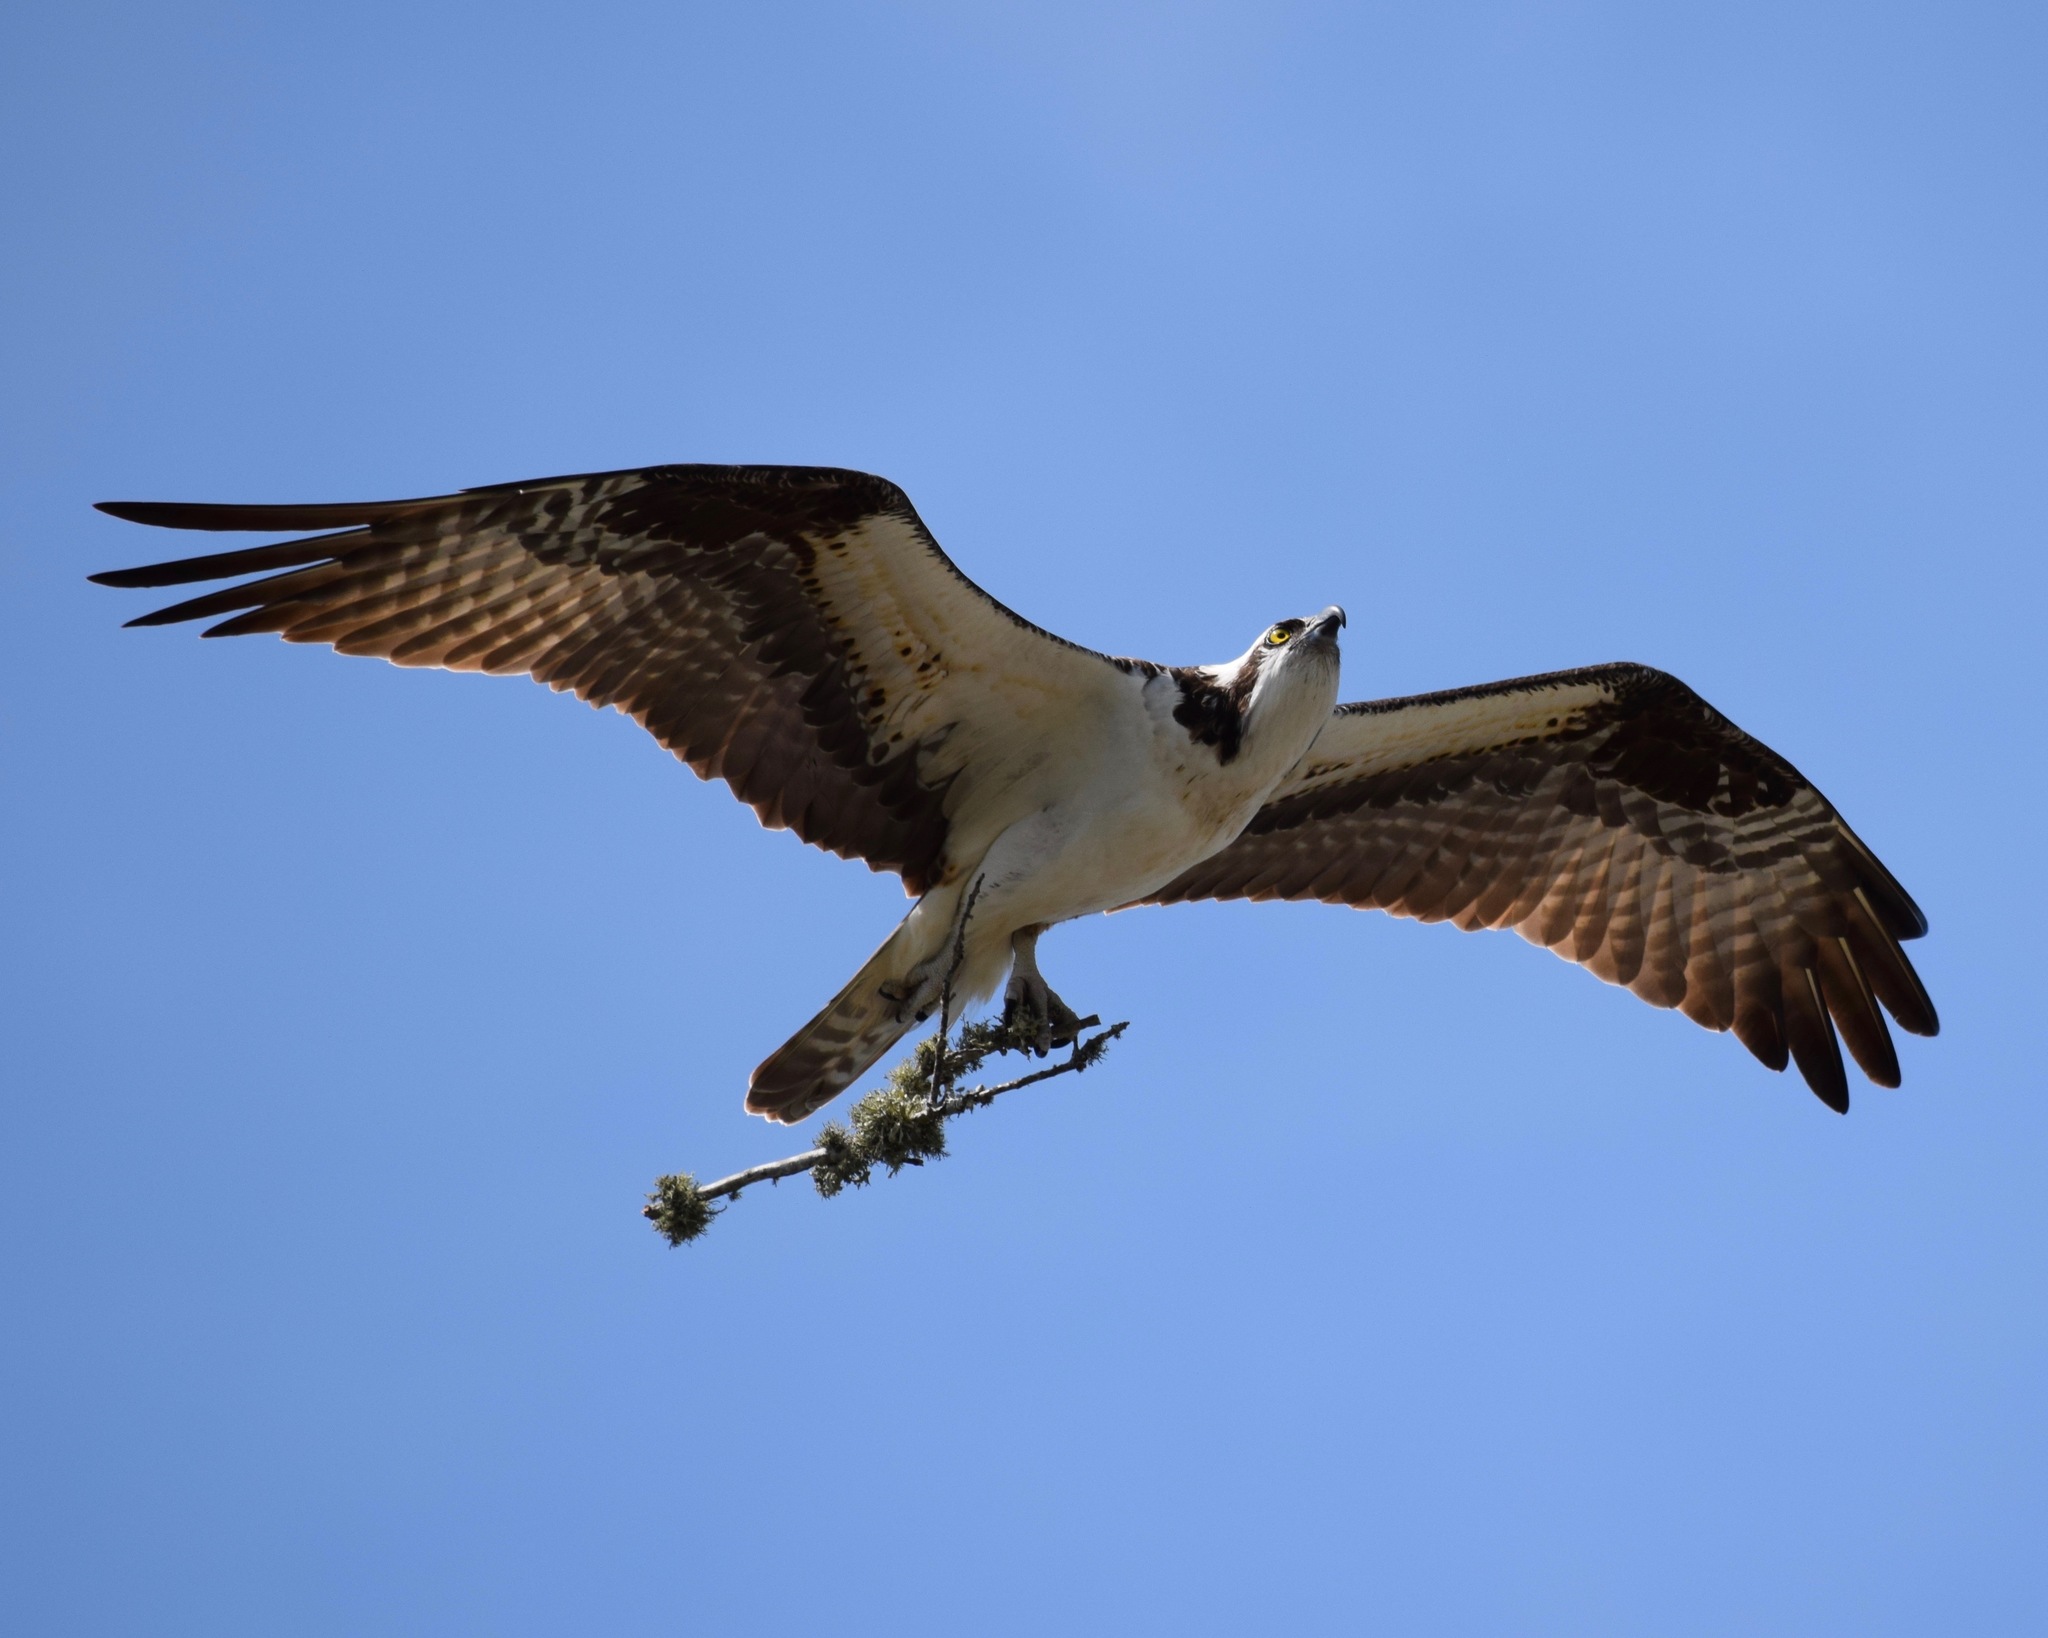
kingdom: Animalia
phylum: Chordata
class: Aves
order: Accipitriformes
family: Pandionidae
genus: Pandion
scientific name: Pandion haliaetus
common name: Osprey
